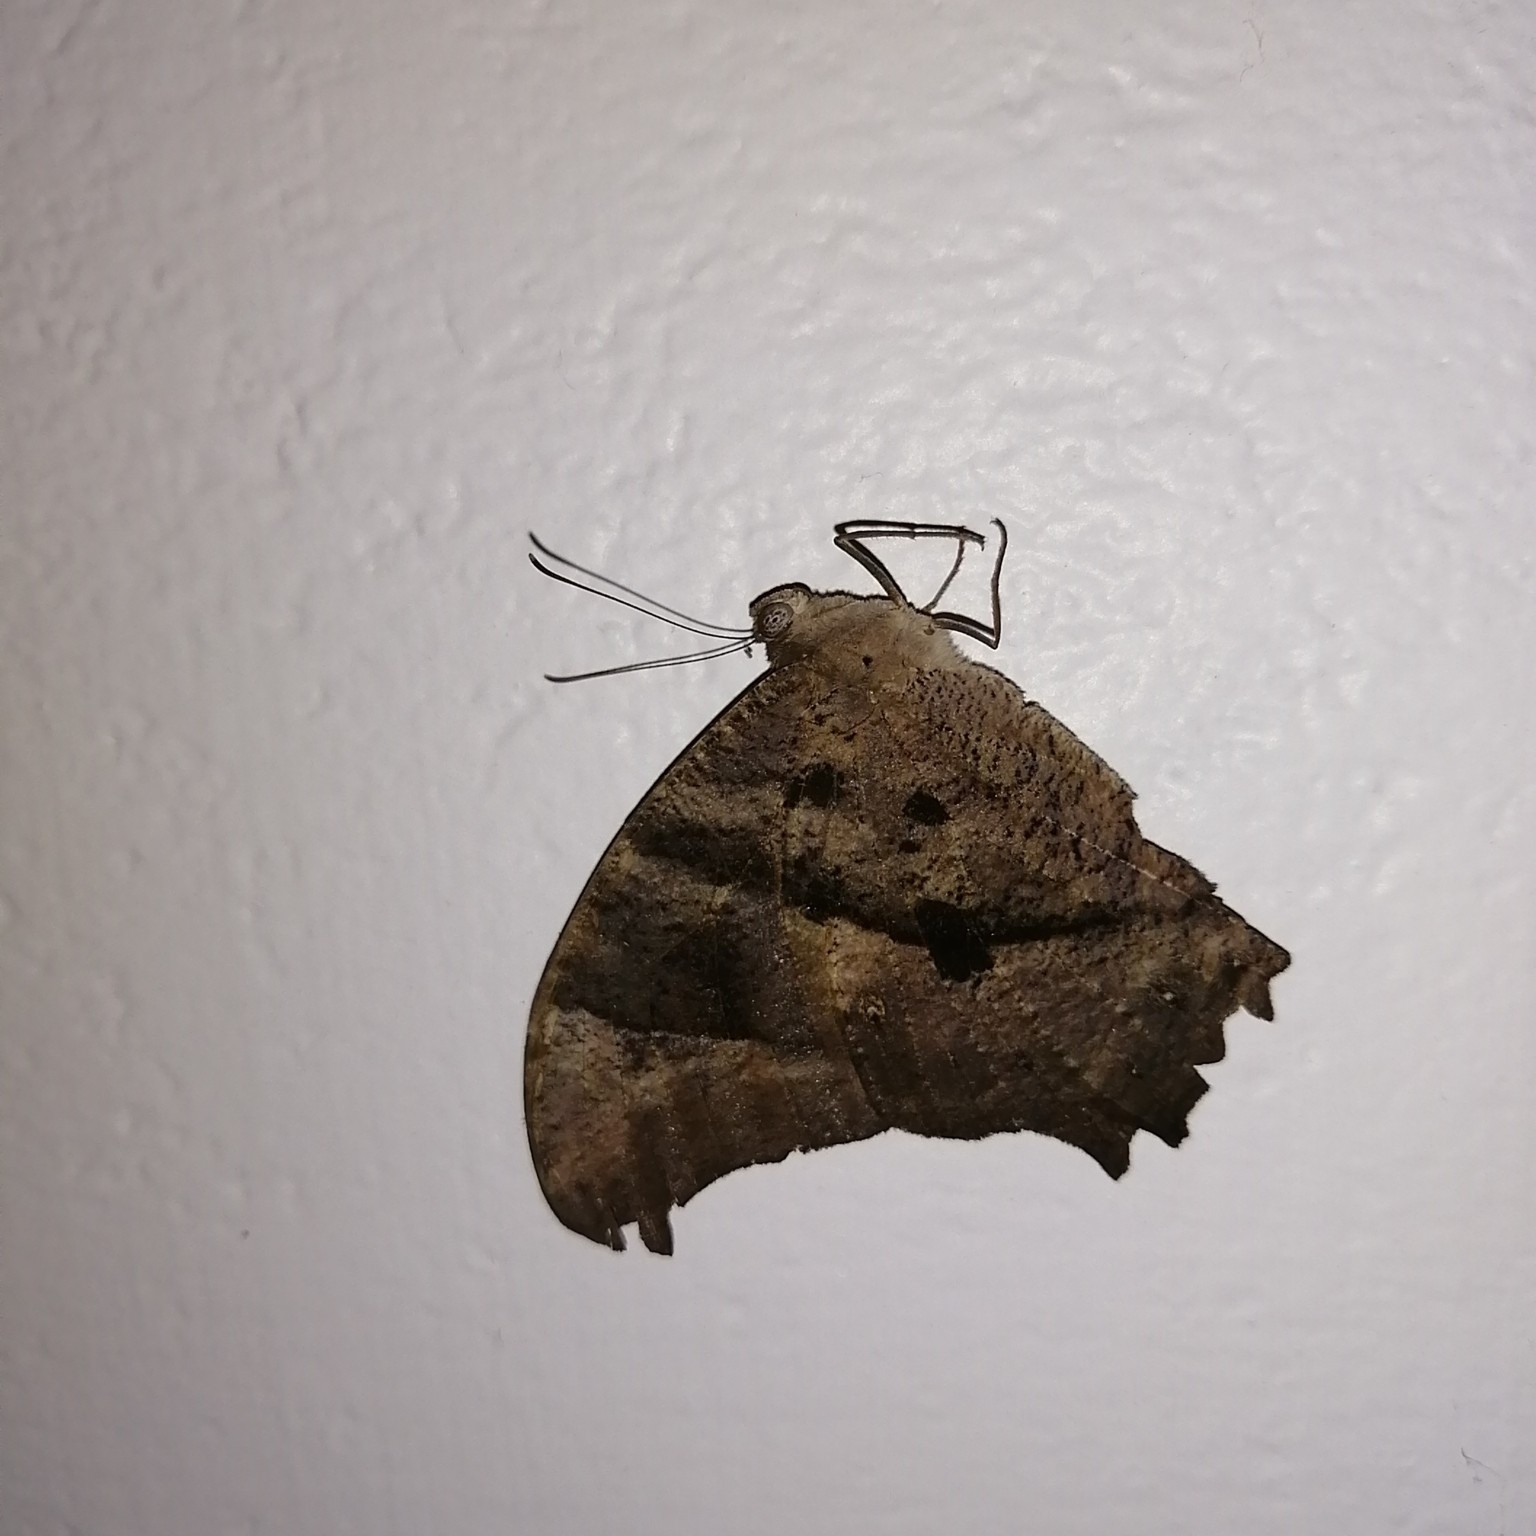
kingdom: Animalia
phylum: Arthropoda
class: Insecta
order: Lepidoptera
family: Nymphalidae
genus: Melanitis
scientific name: Melanitis leda
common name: Twilight brown
